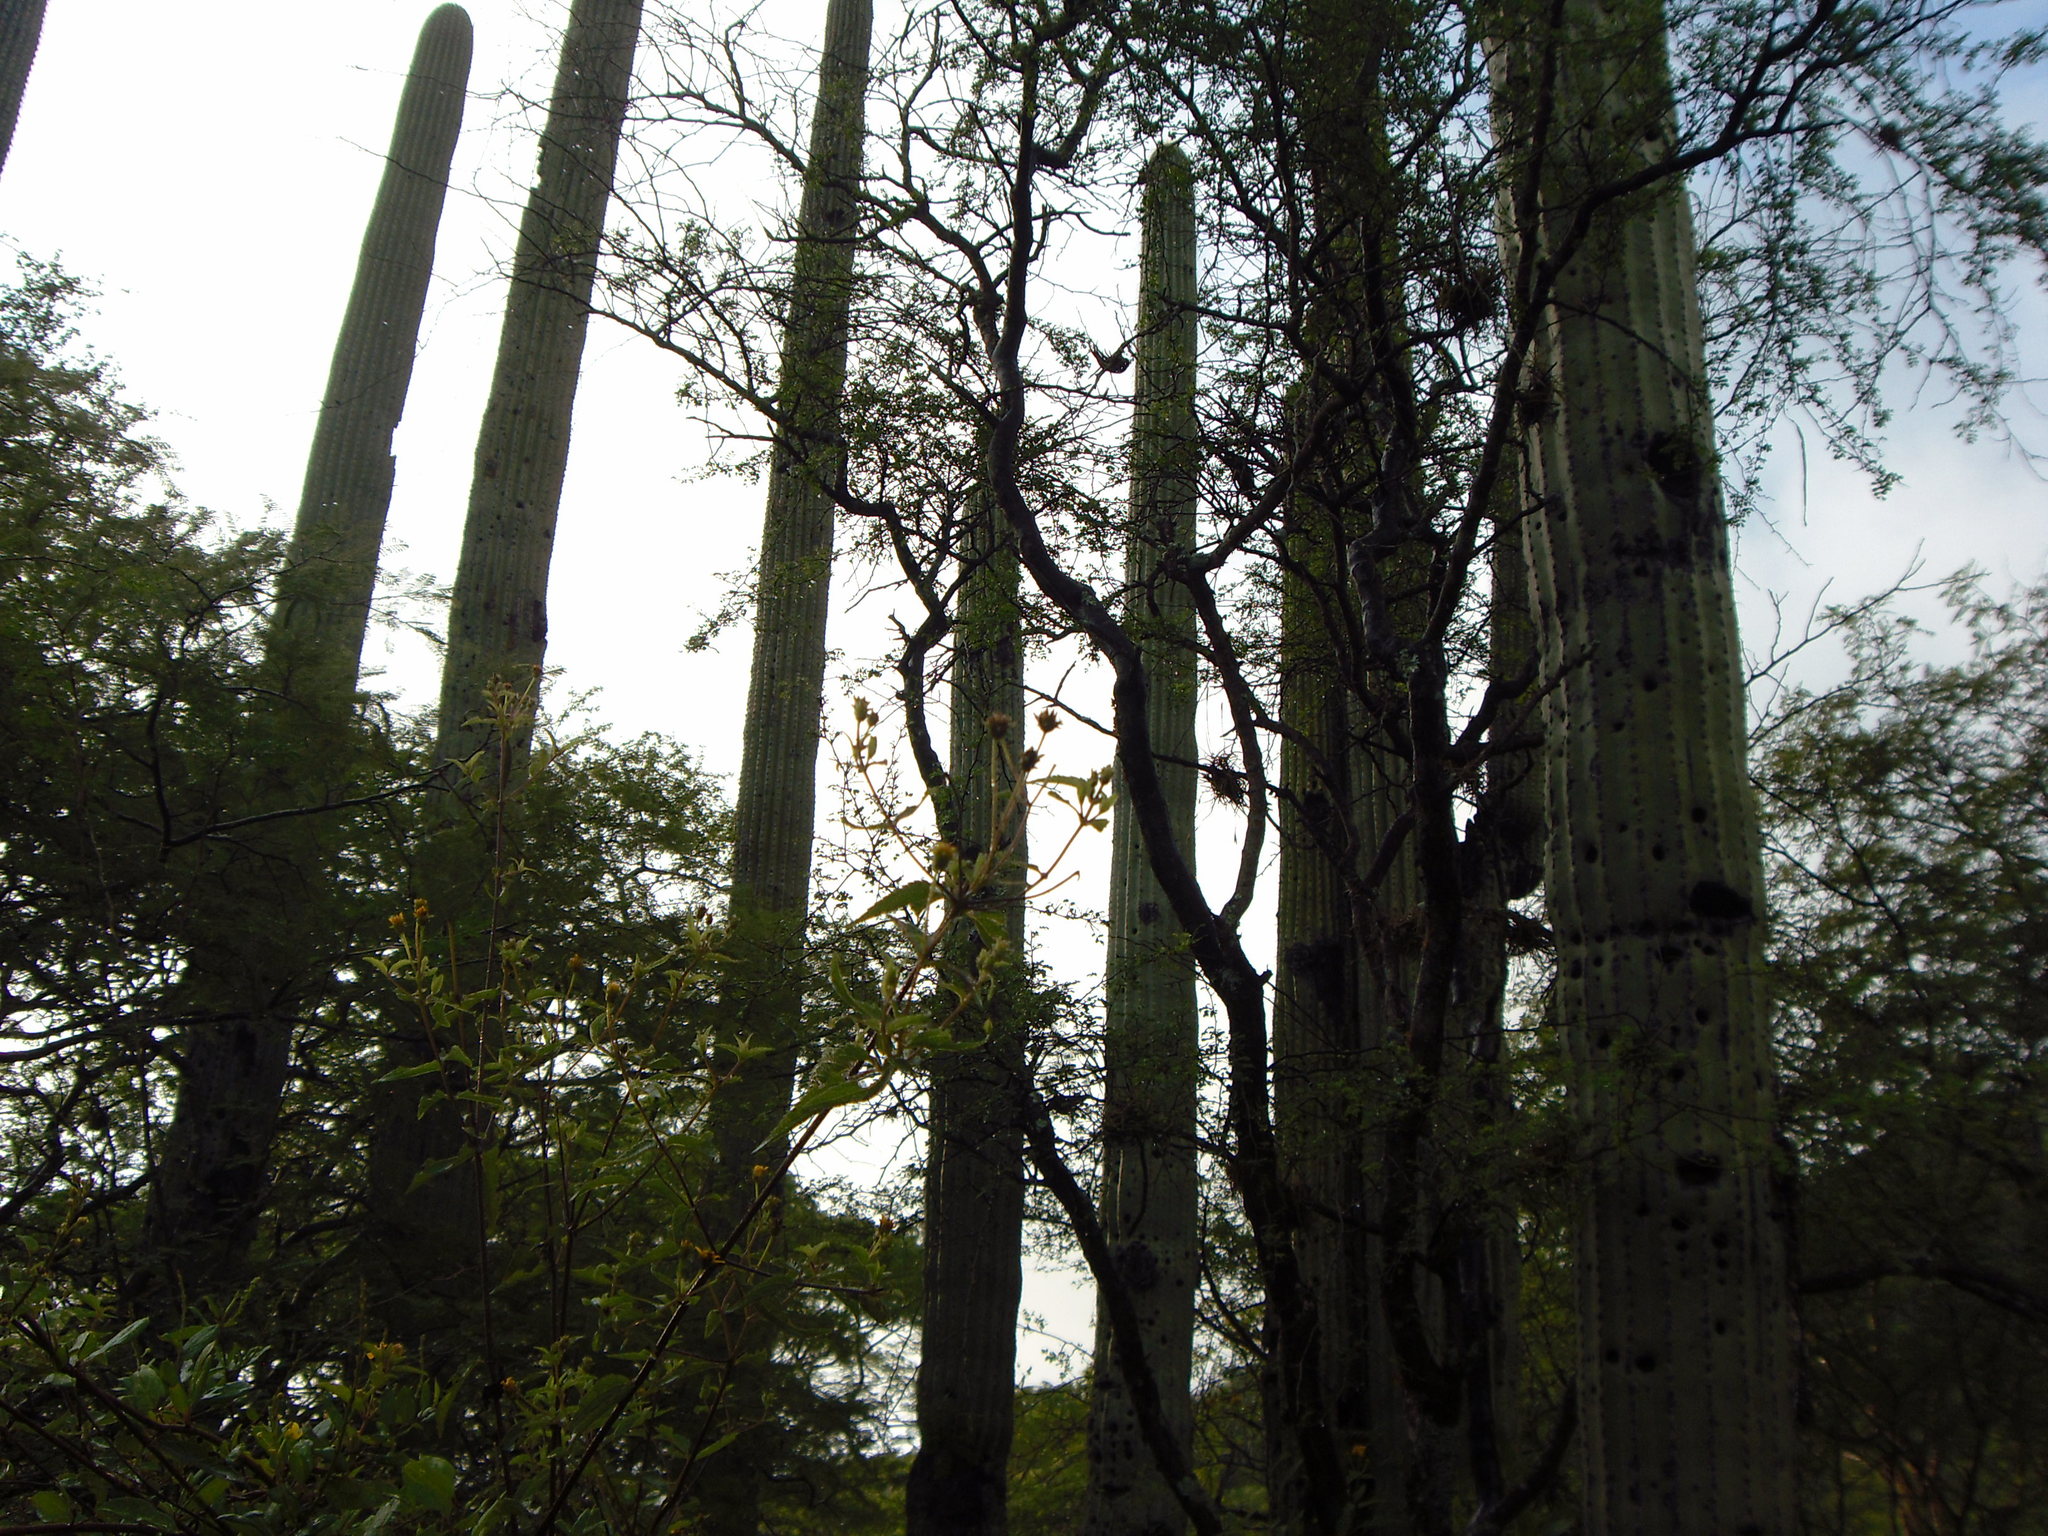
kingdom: Plantae
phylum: Tracheophyta
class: Magnoliopsida
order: Caryophyllales
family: Cactaceae
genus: Cephalocereus
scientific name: Cephalocereus mezcalaensis
